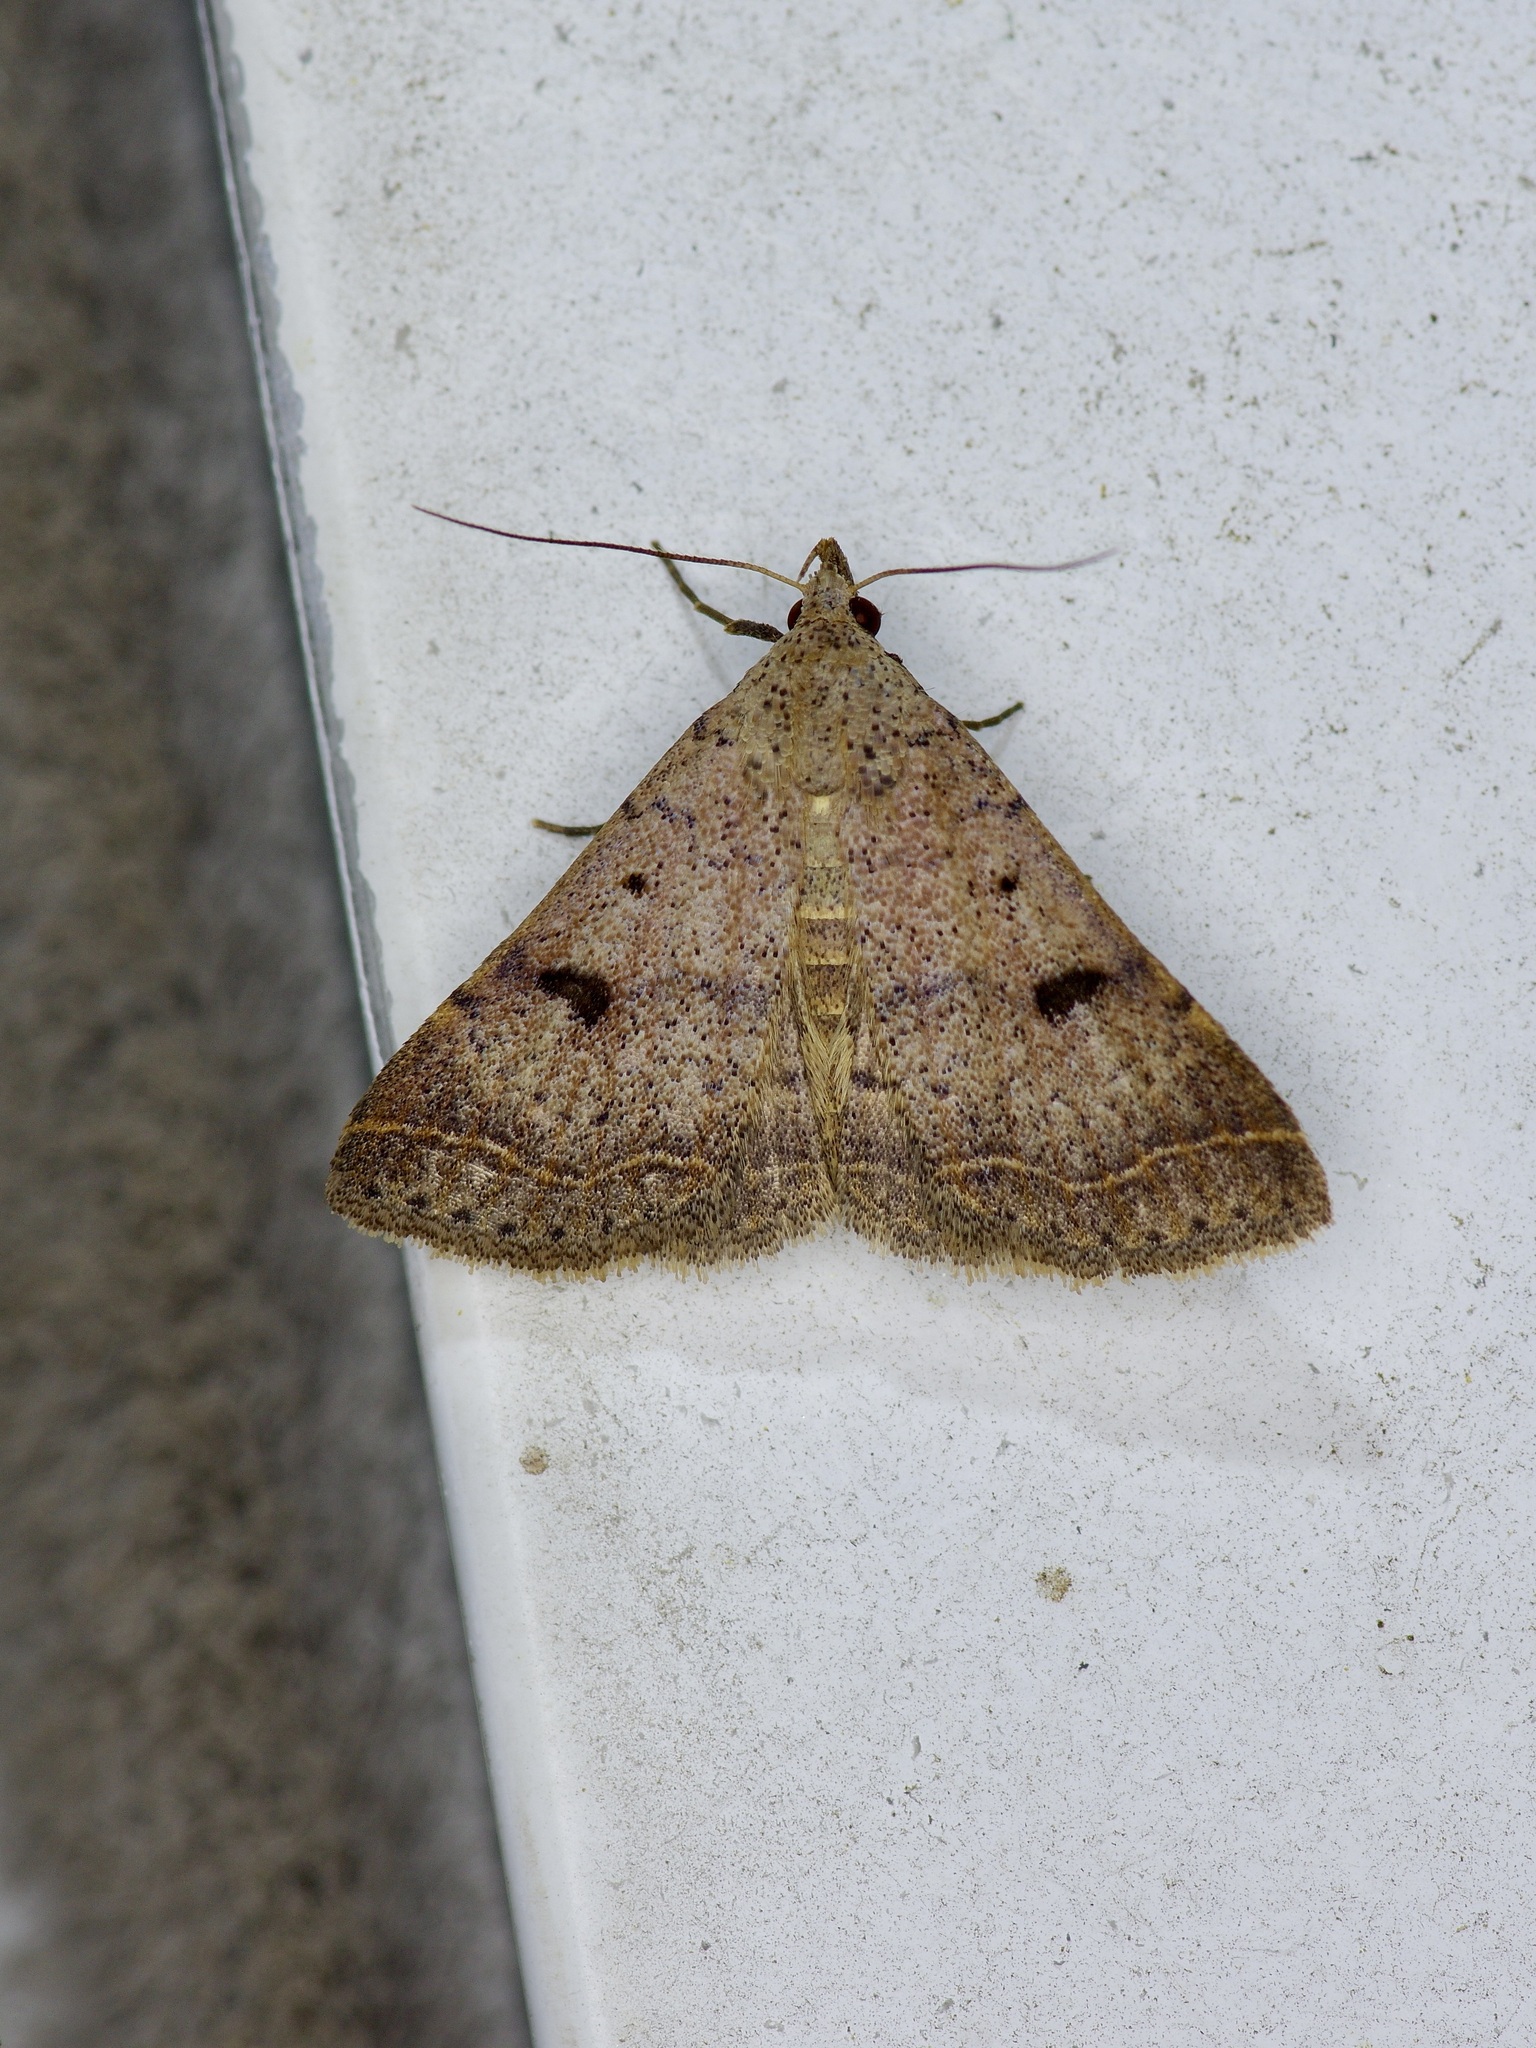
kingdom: Animalia
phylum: Arthropoda
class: Insecta
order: Lepidoptera
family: Erebidae
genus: Bleptina
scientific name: Bleptina caradrinalis
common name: Bent-winged owlet
